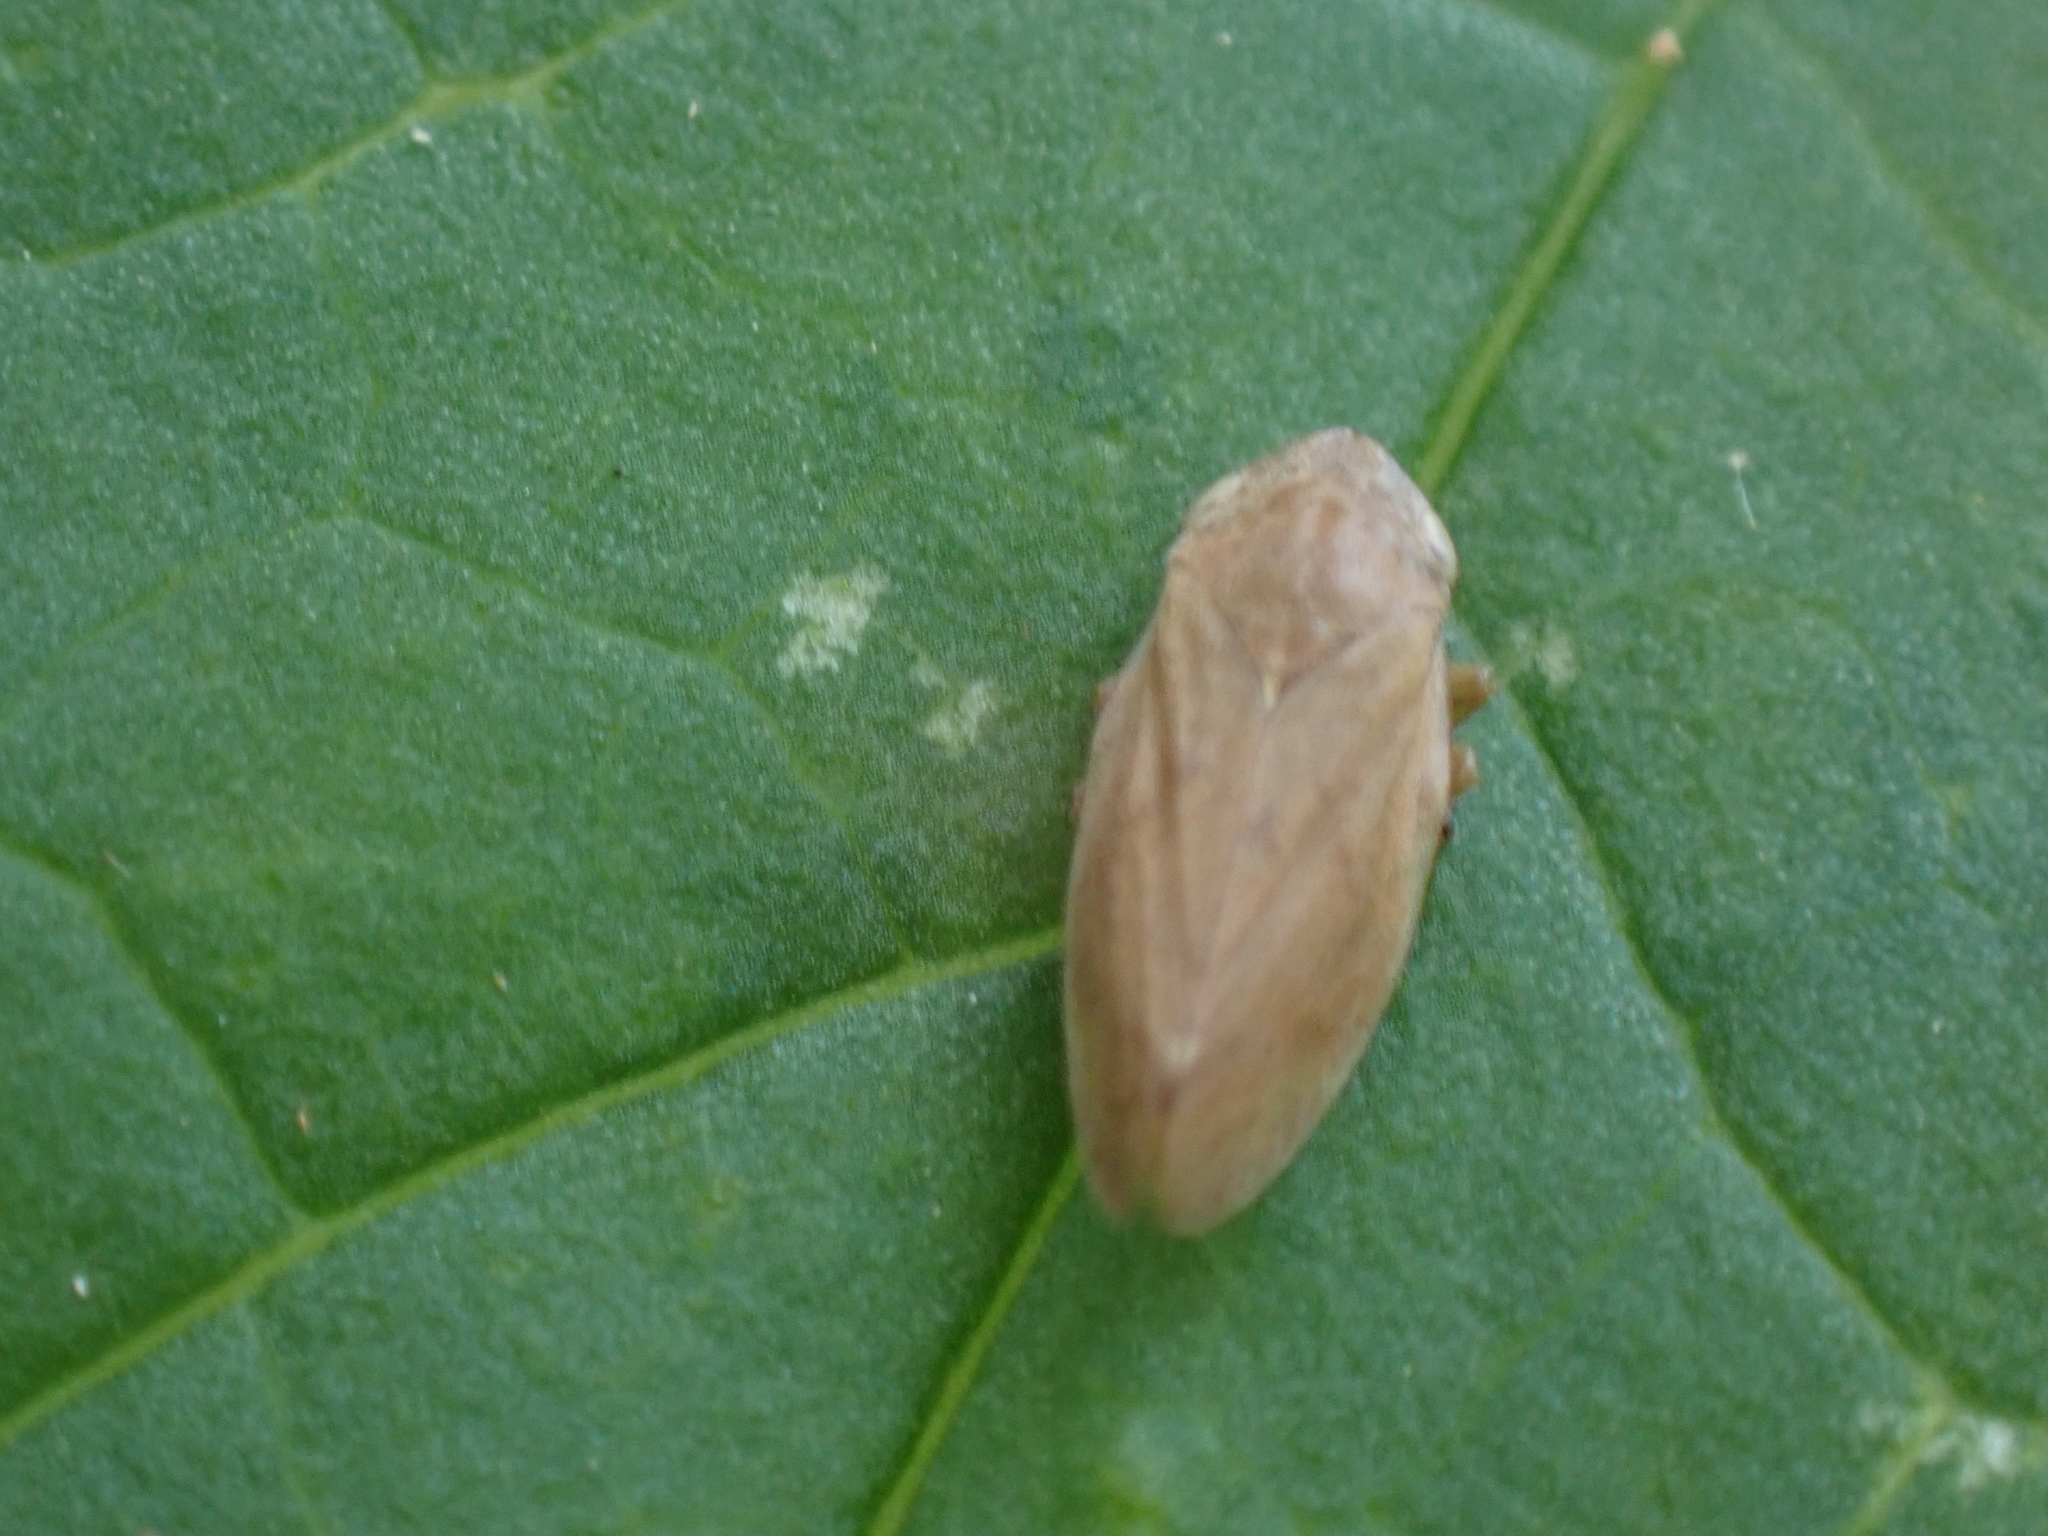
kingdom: Animalia
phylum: Arthropoda
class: Insecta
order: Hemiptera
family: Aphrophoridae
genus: Philaenus
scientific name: Philaenus spumarius
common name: Meadow spittlebug
